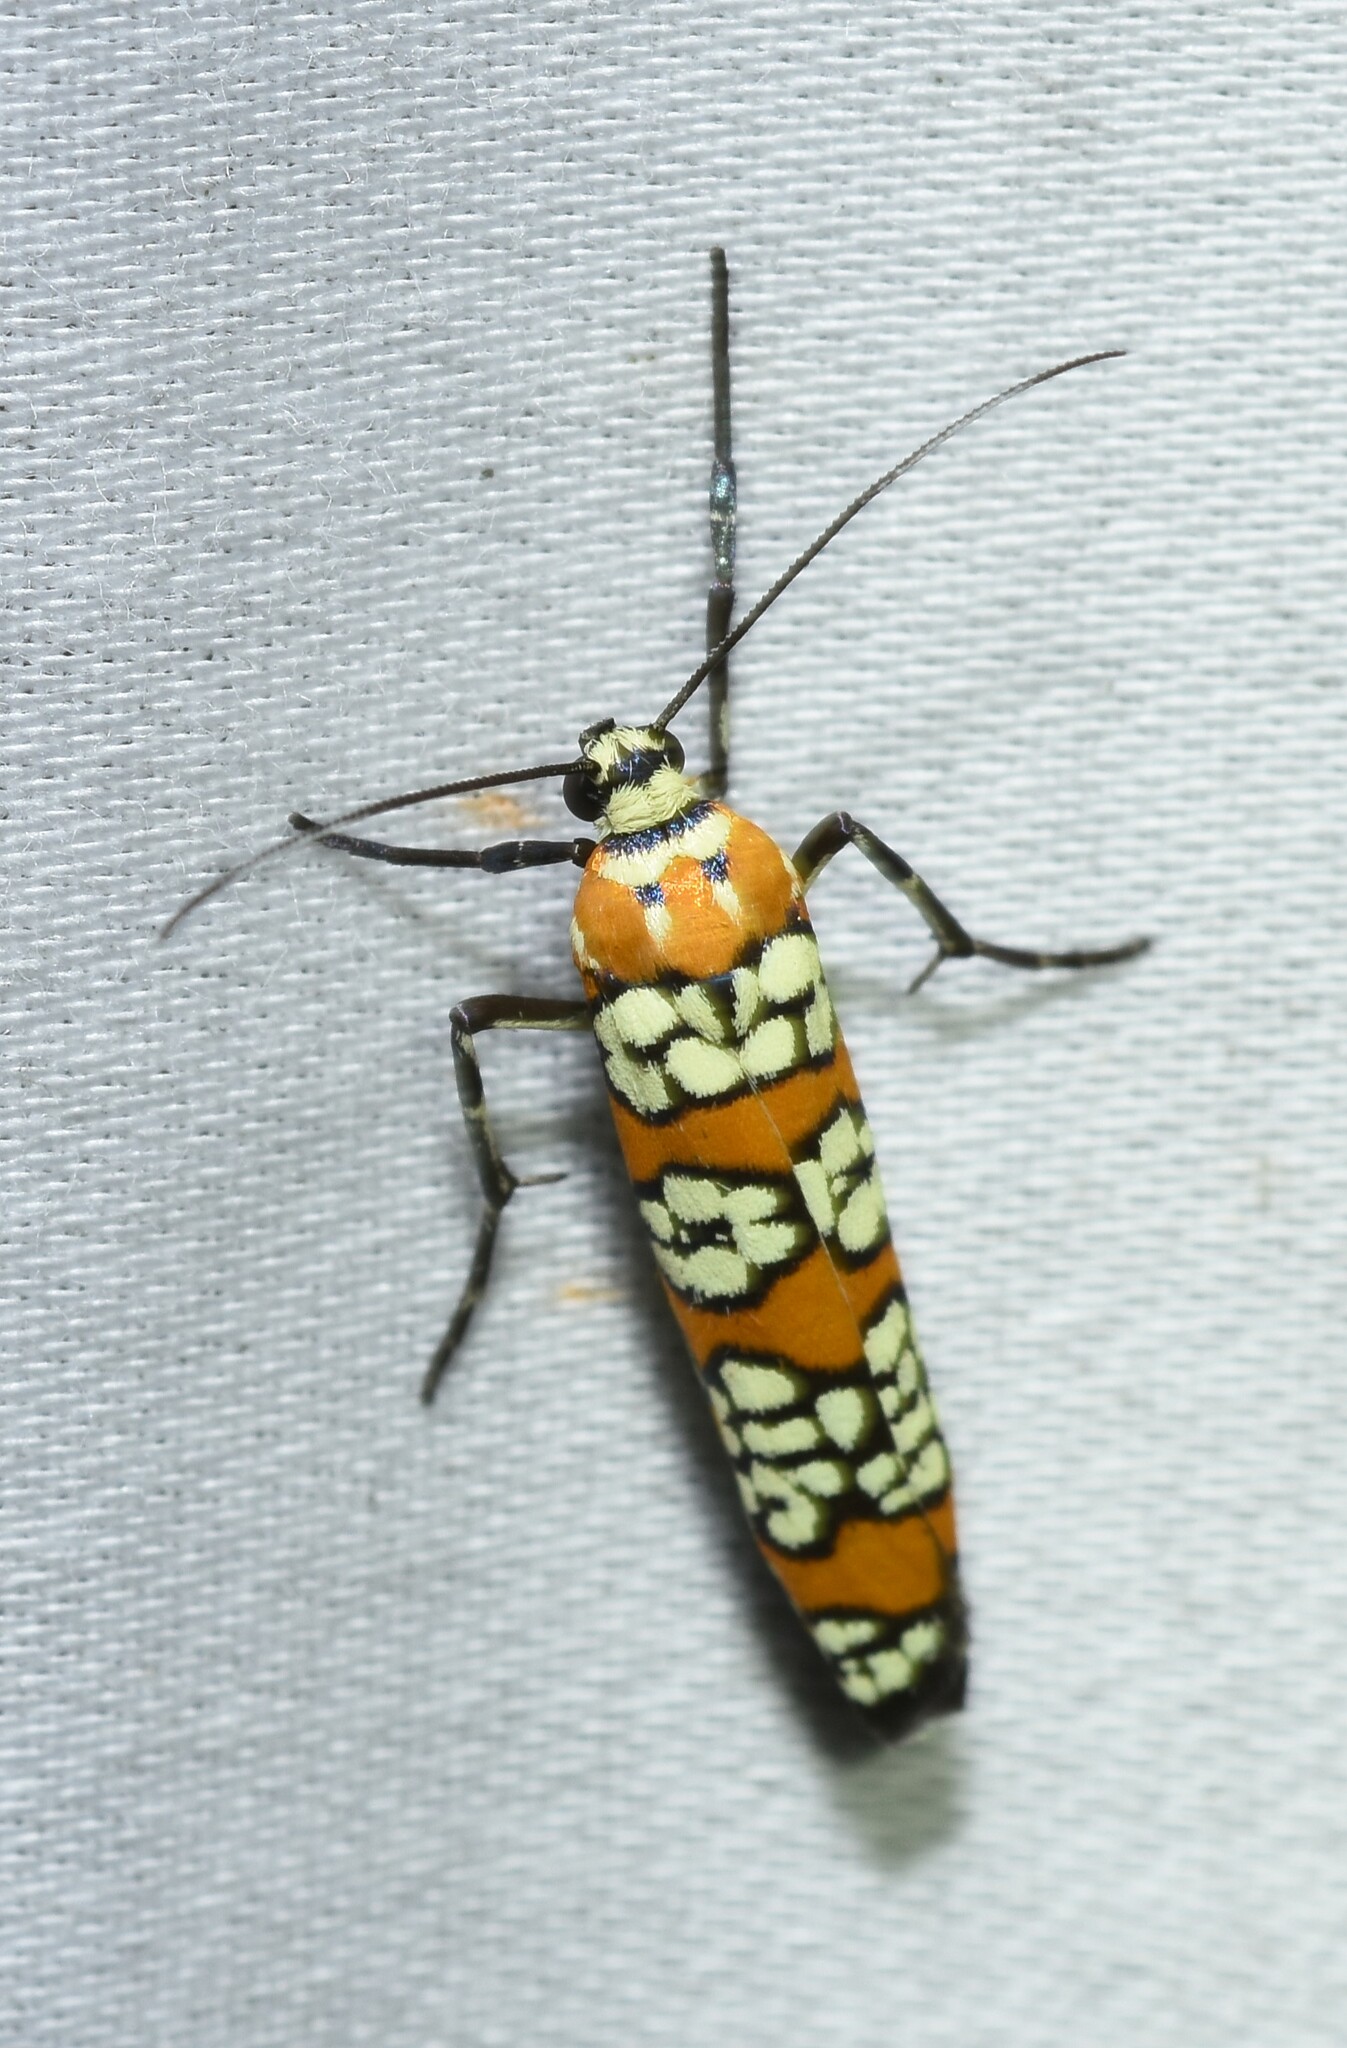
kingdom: Animalia
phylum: Arthropoda
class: Insecta
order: Lepidoptera
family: Attevidae
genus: Atteva
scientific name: Atteva punctella
